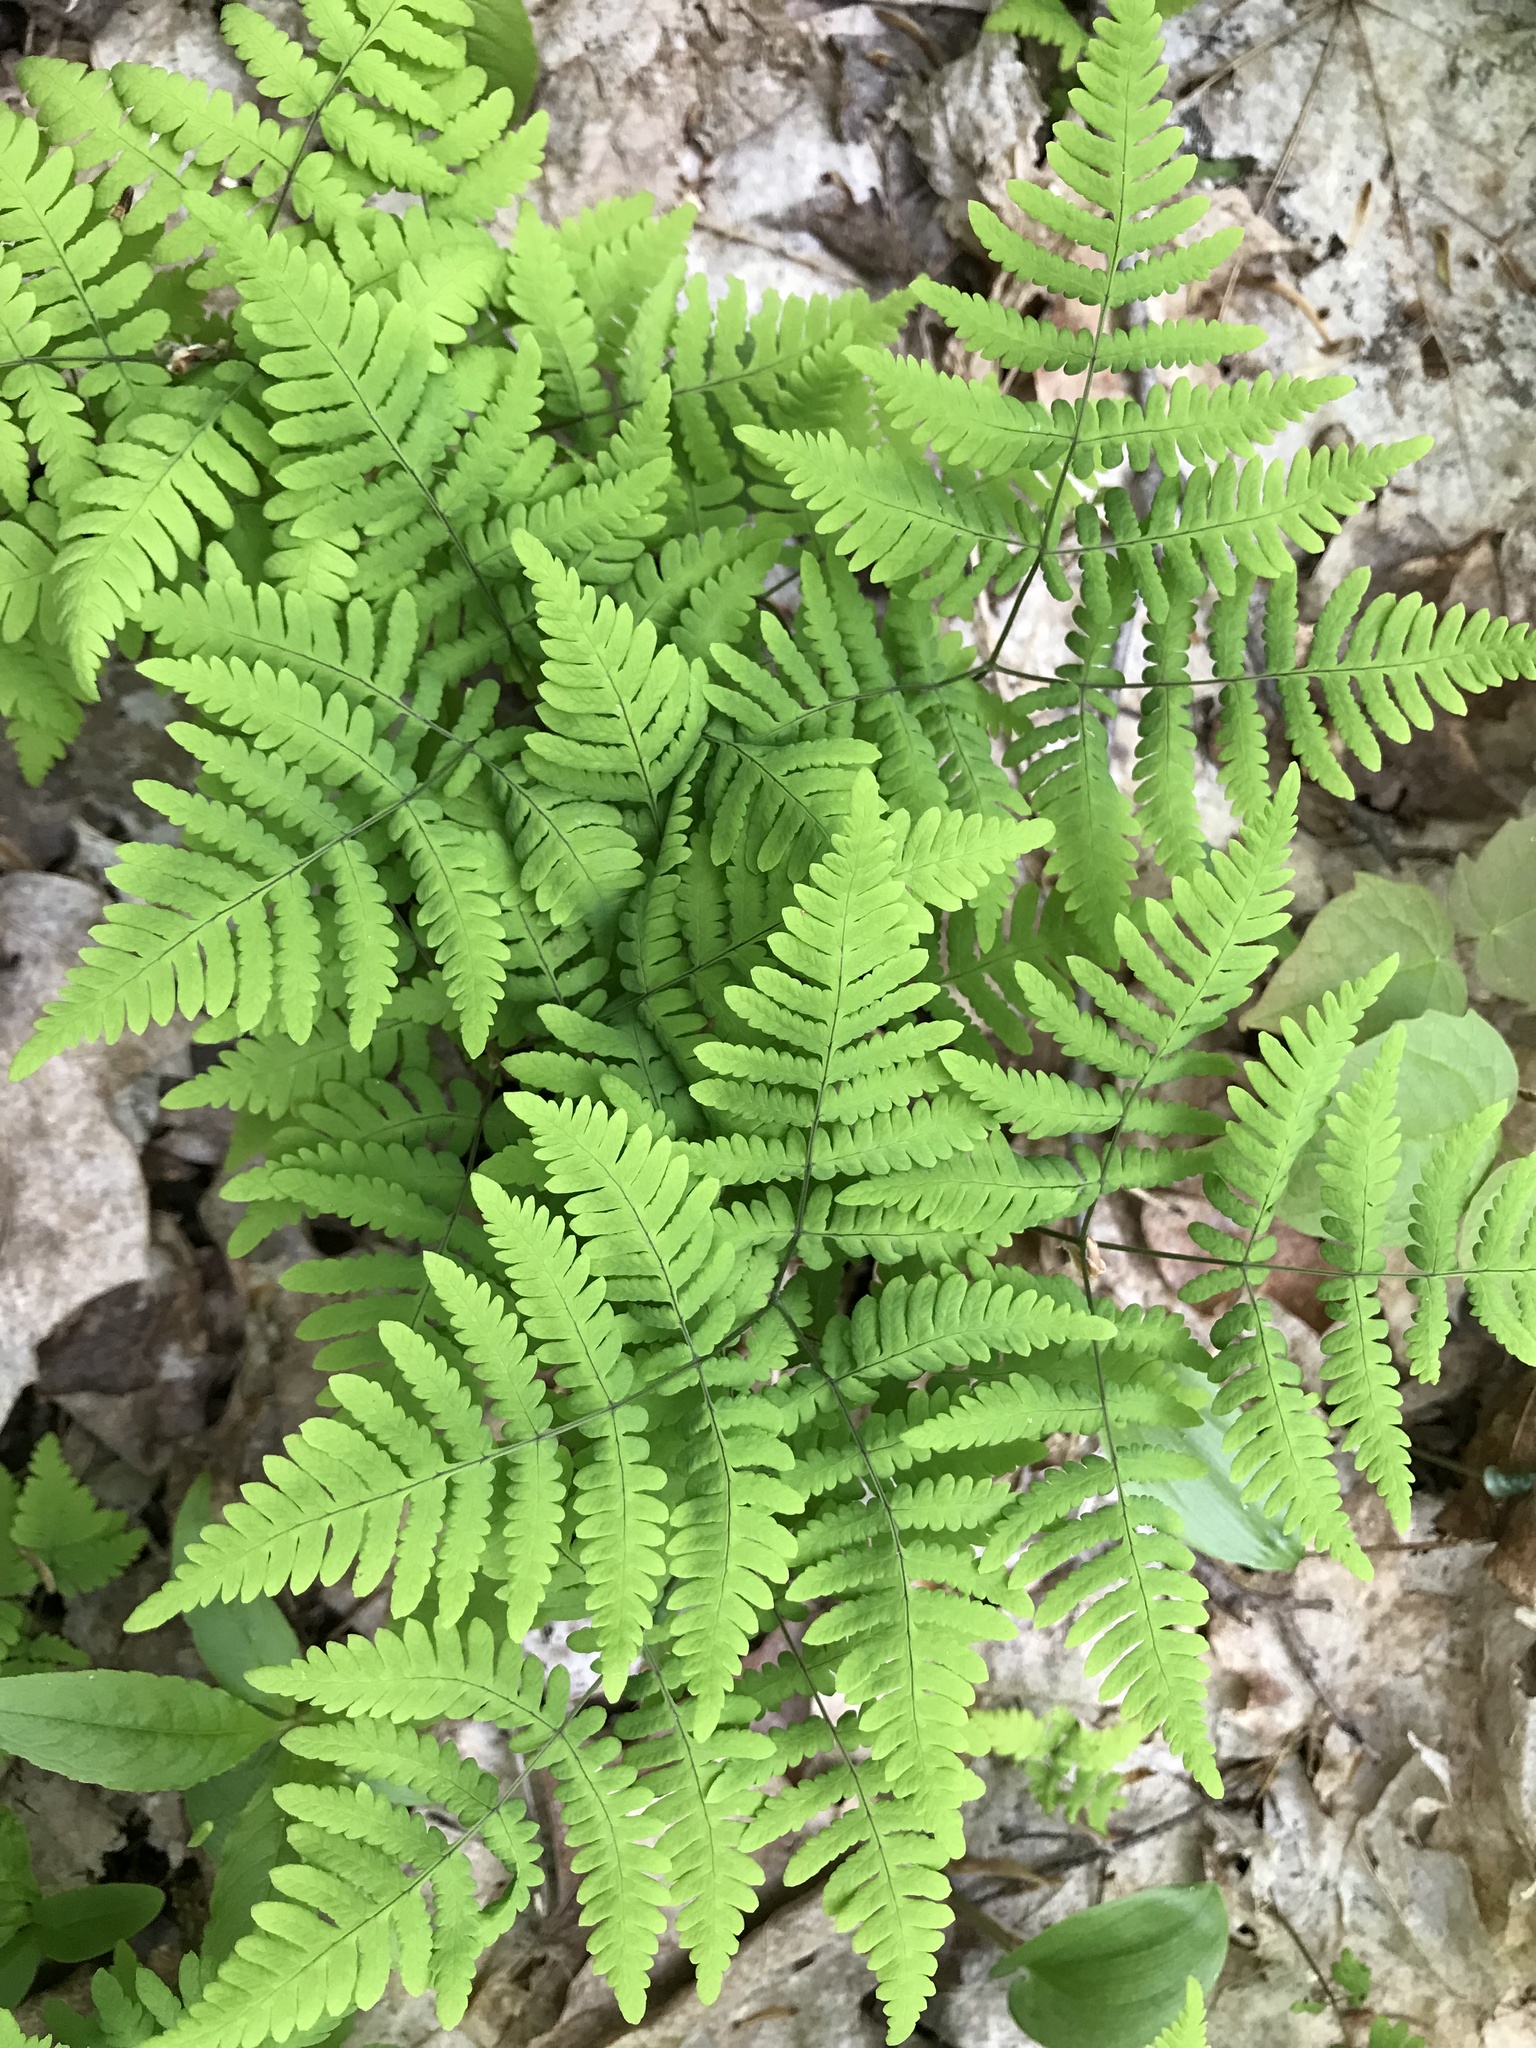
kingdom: Plantae
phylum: Tracheophyta
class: Polypodiopsida
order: Polypodiales
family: Cystopteridaceae
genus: Gymnocarpium
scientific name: Gymnocarpium dryopteris
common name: Oak fern
